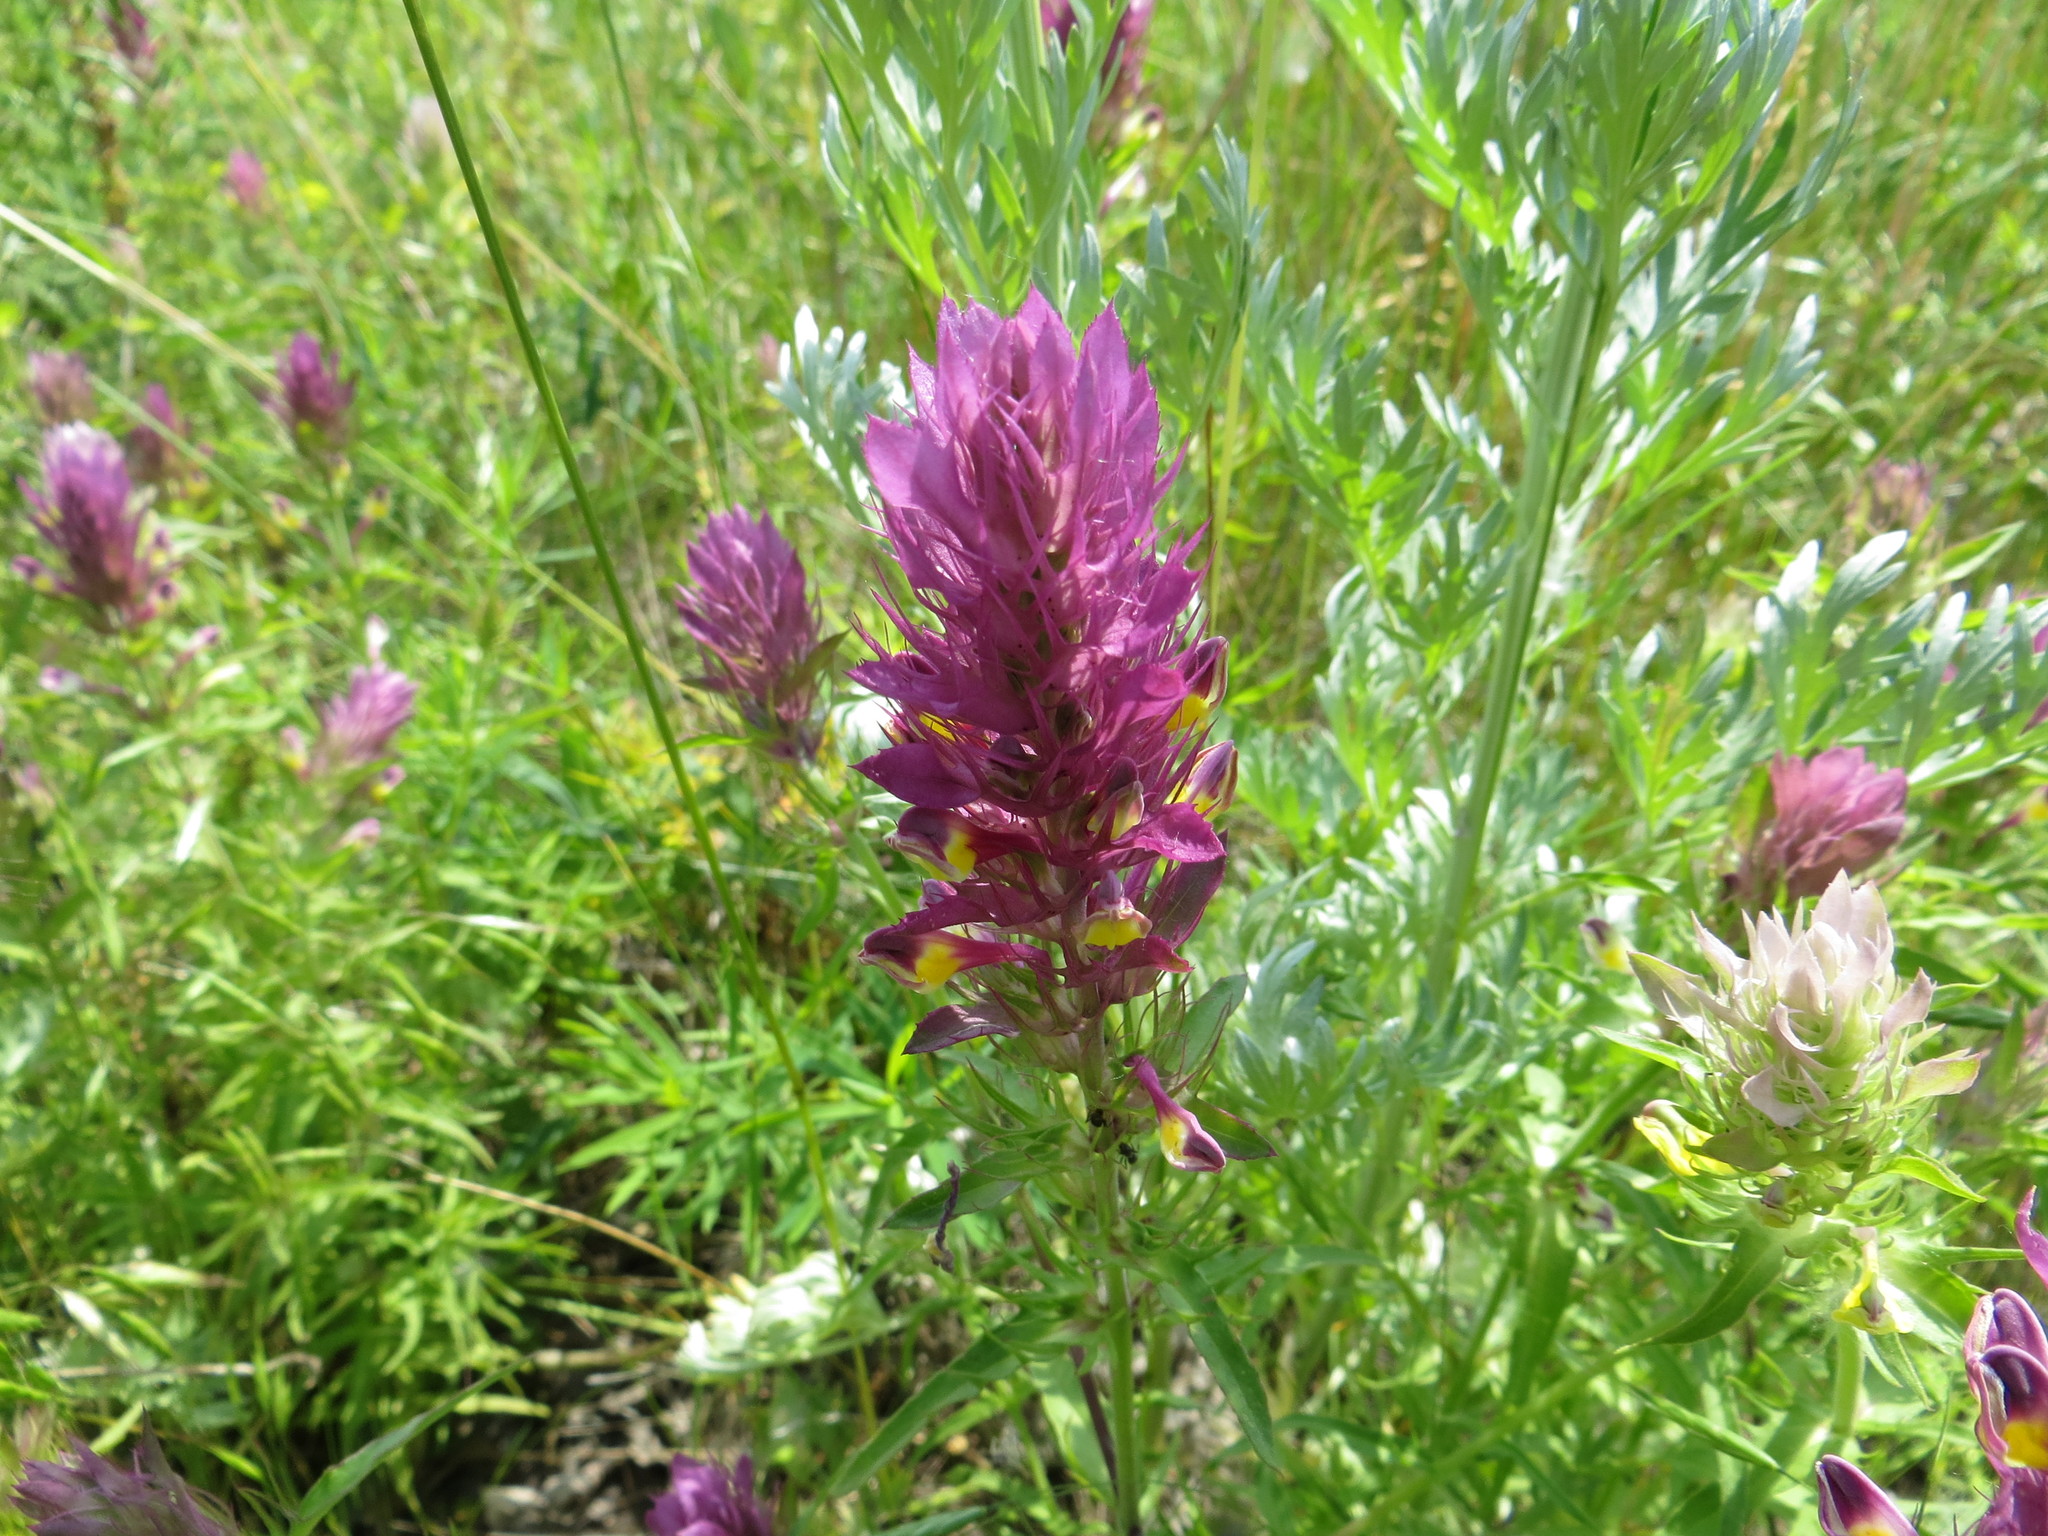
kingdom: Plantae
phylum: Tracheophyta
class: Magnoliopsida
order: Lamiales
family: Orobanchaceae
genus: Melampyrum
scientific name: Melampyrum arvense
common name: Field cow-wheat
